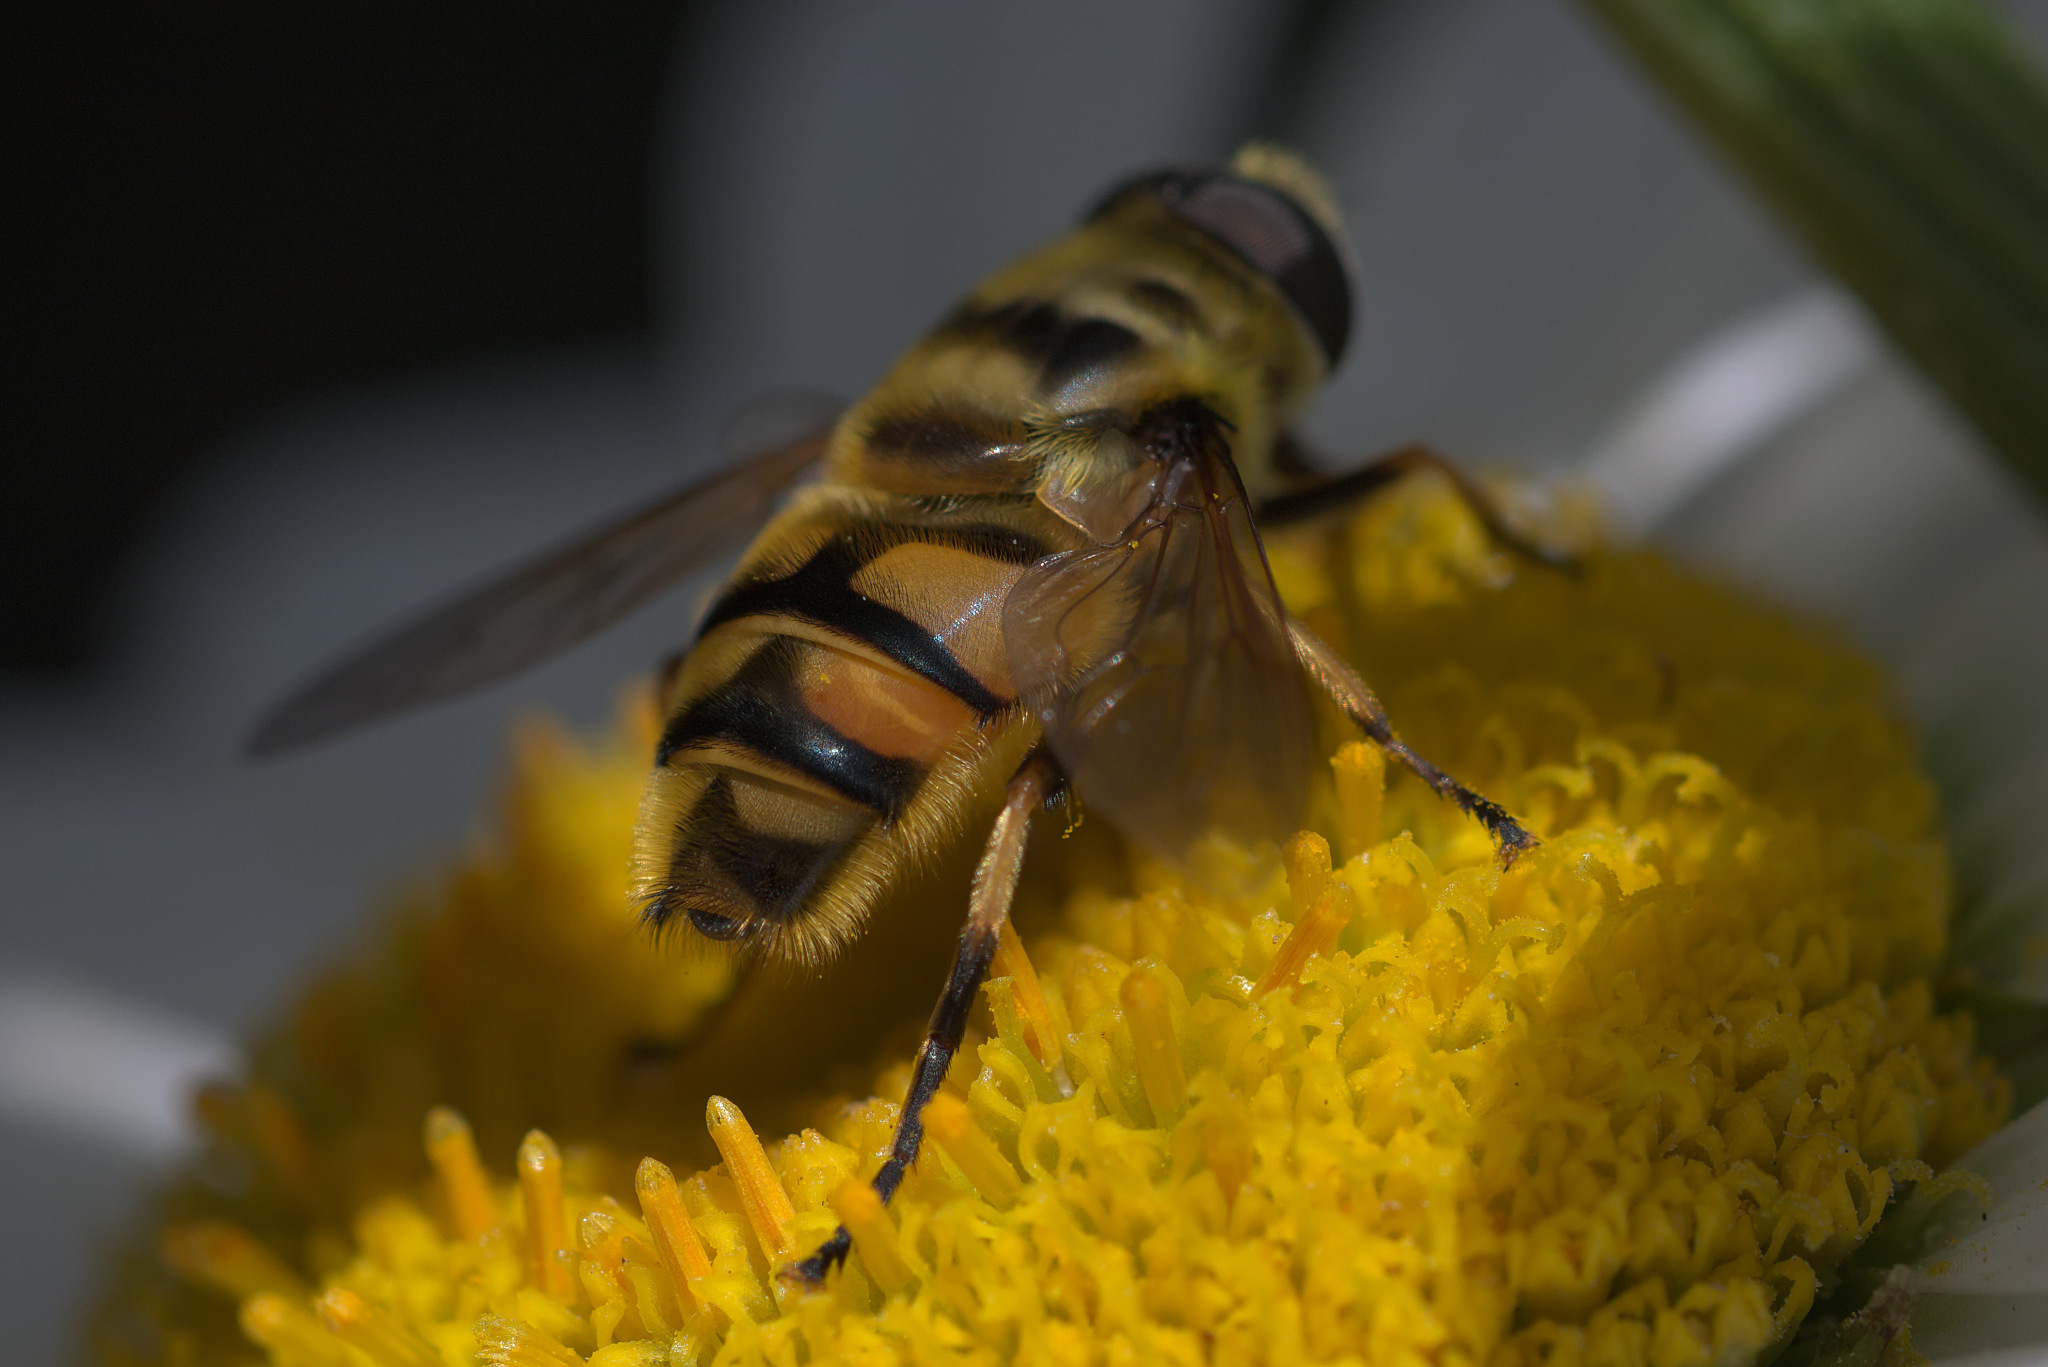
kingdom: Animalia
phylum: Arthropoda
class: Insecta
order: Diptera
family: Syrphidae
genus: Myathropa
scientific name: Myathropa florea
